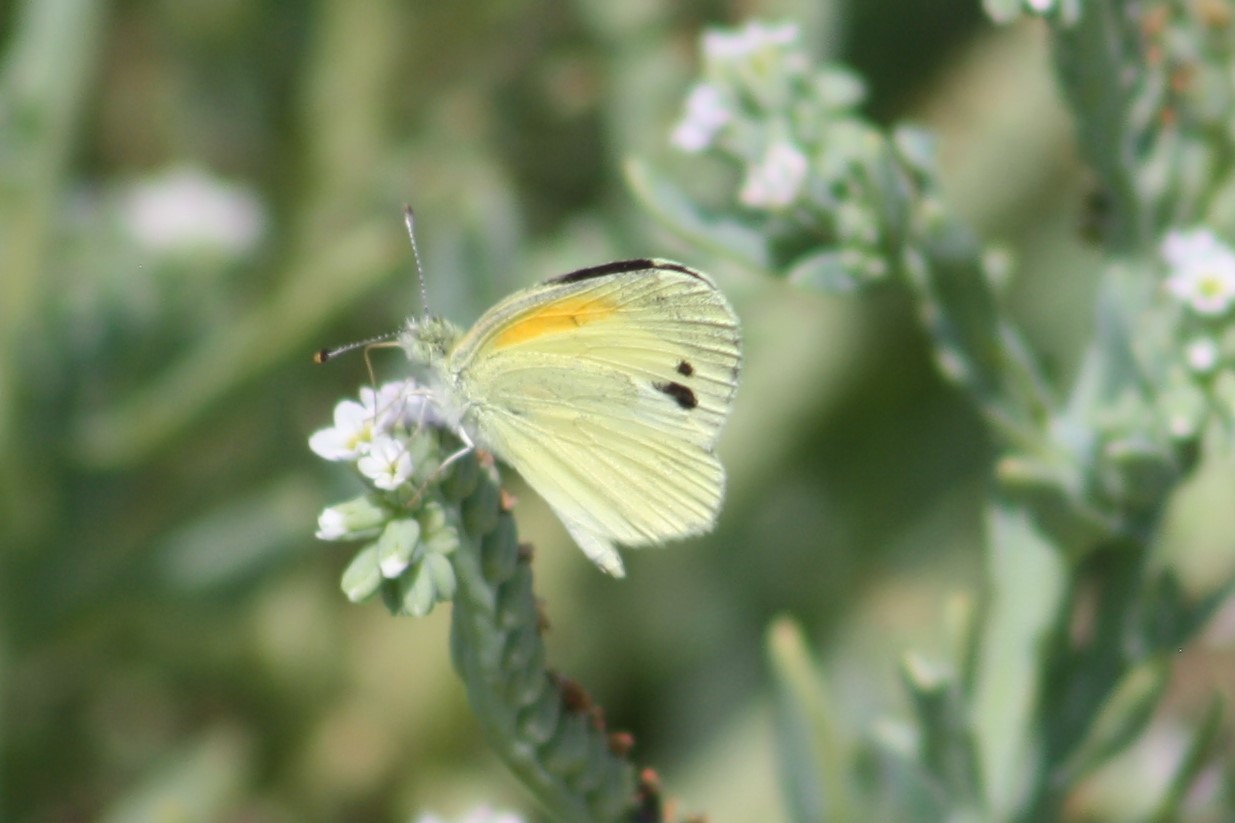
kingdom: Animalia
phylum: Arthropoda
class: Insecta
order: Lepidoptera
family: Pieridae
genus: Nathalis
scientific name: Nathalis iole
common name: Dainty sulphur
